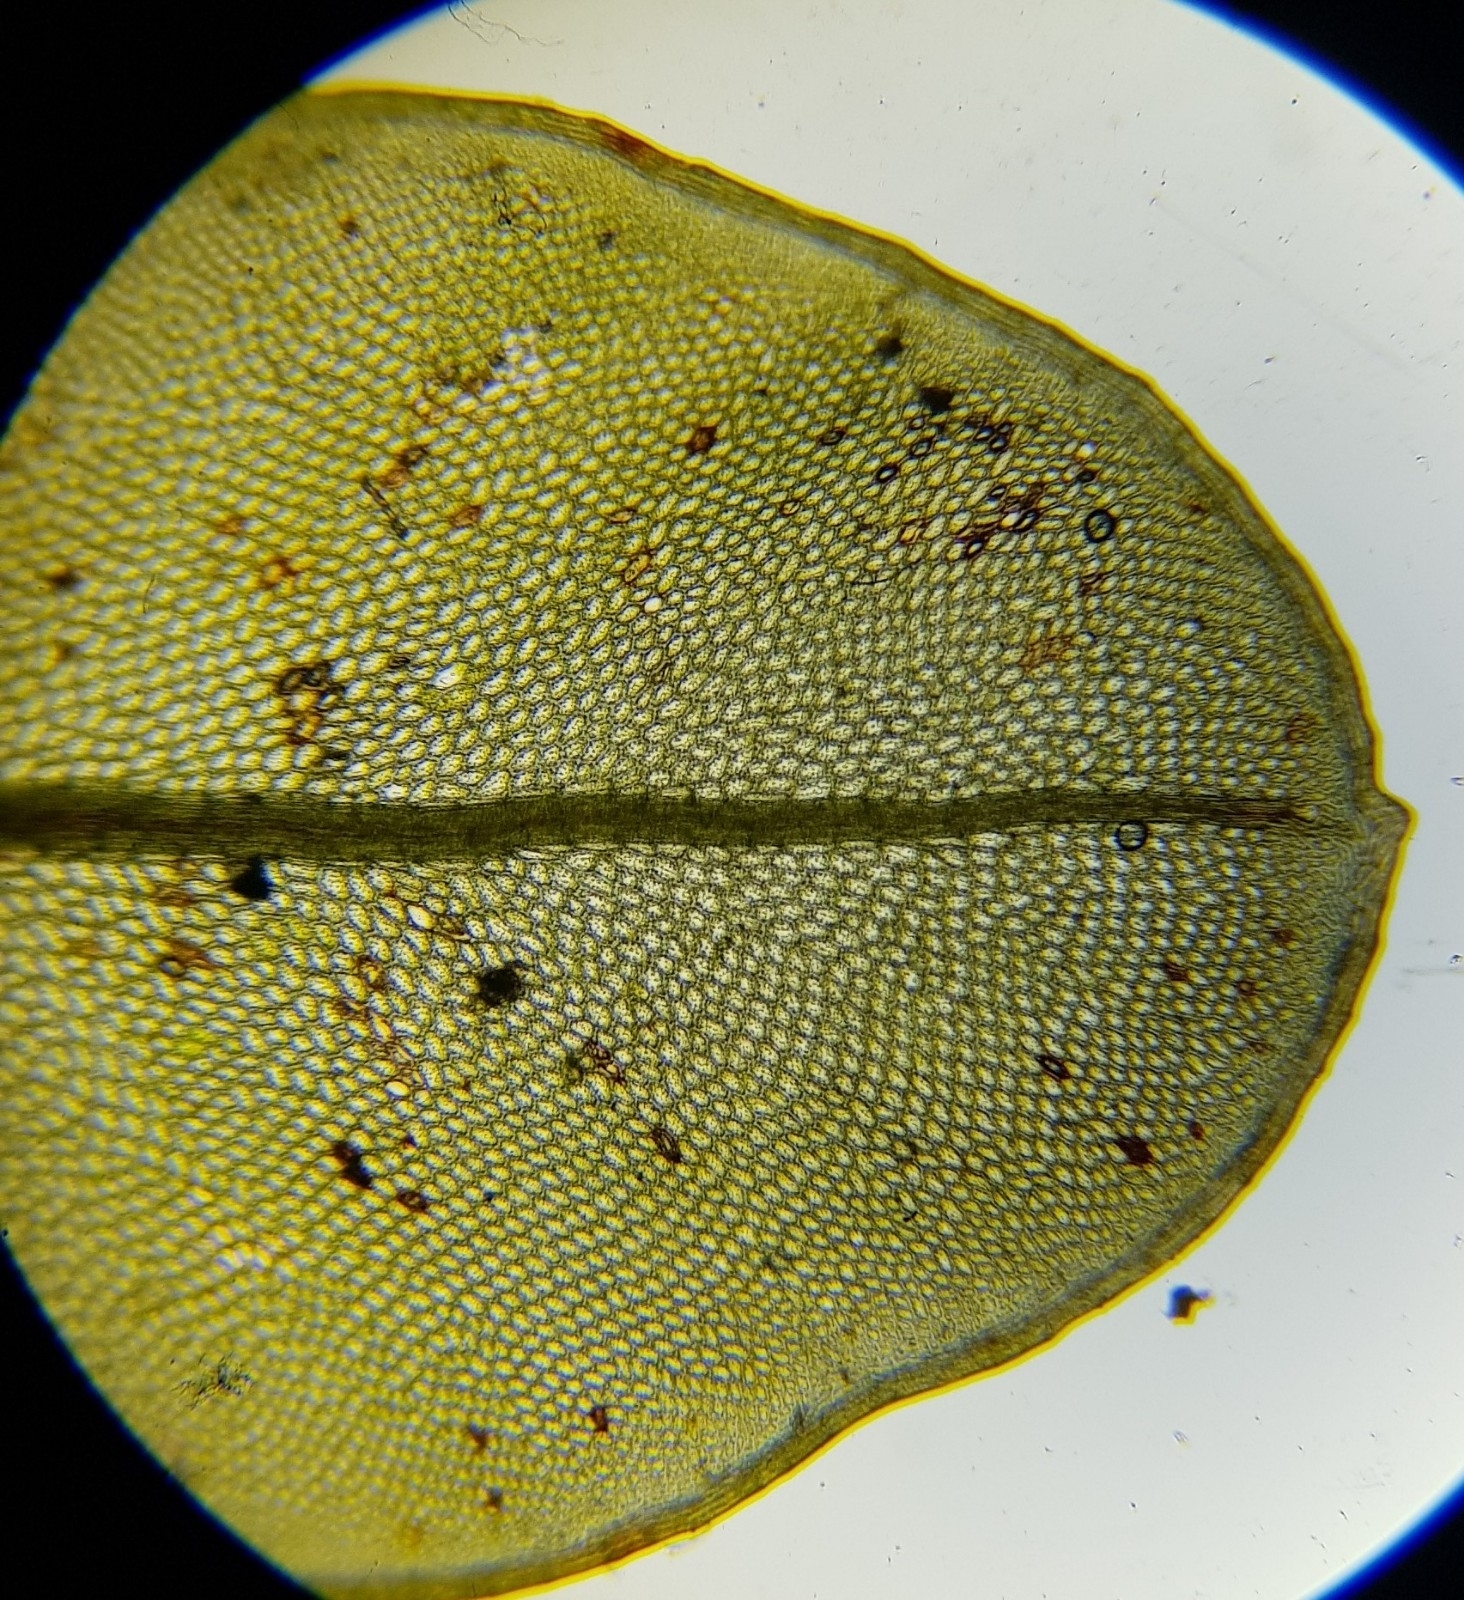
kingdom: Plantae
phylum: Bryophyta
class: Bryopsida
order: Bryales
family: Mniaceae
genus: Rhizomnium
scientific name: Rhizomnium punctatum
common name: Dotted leafy moss
